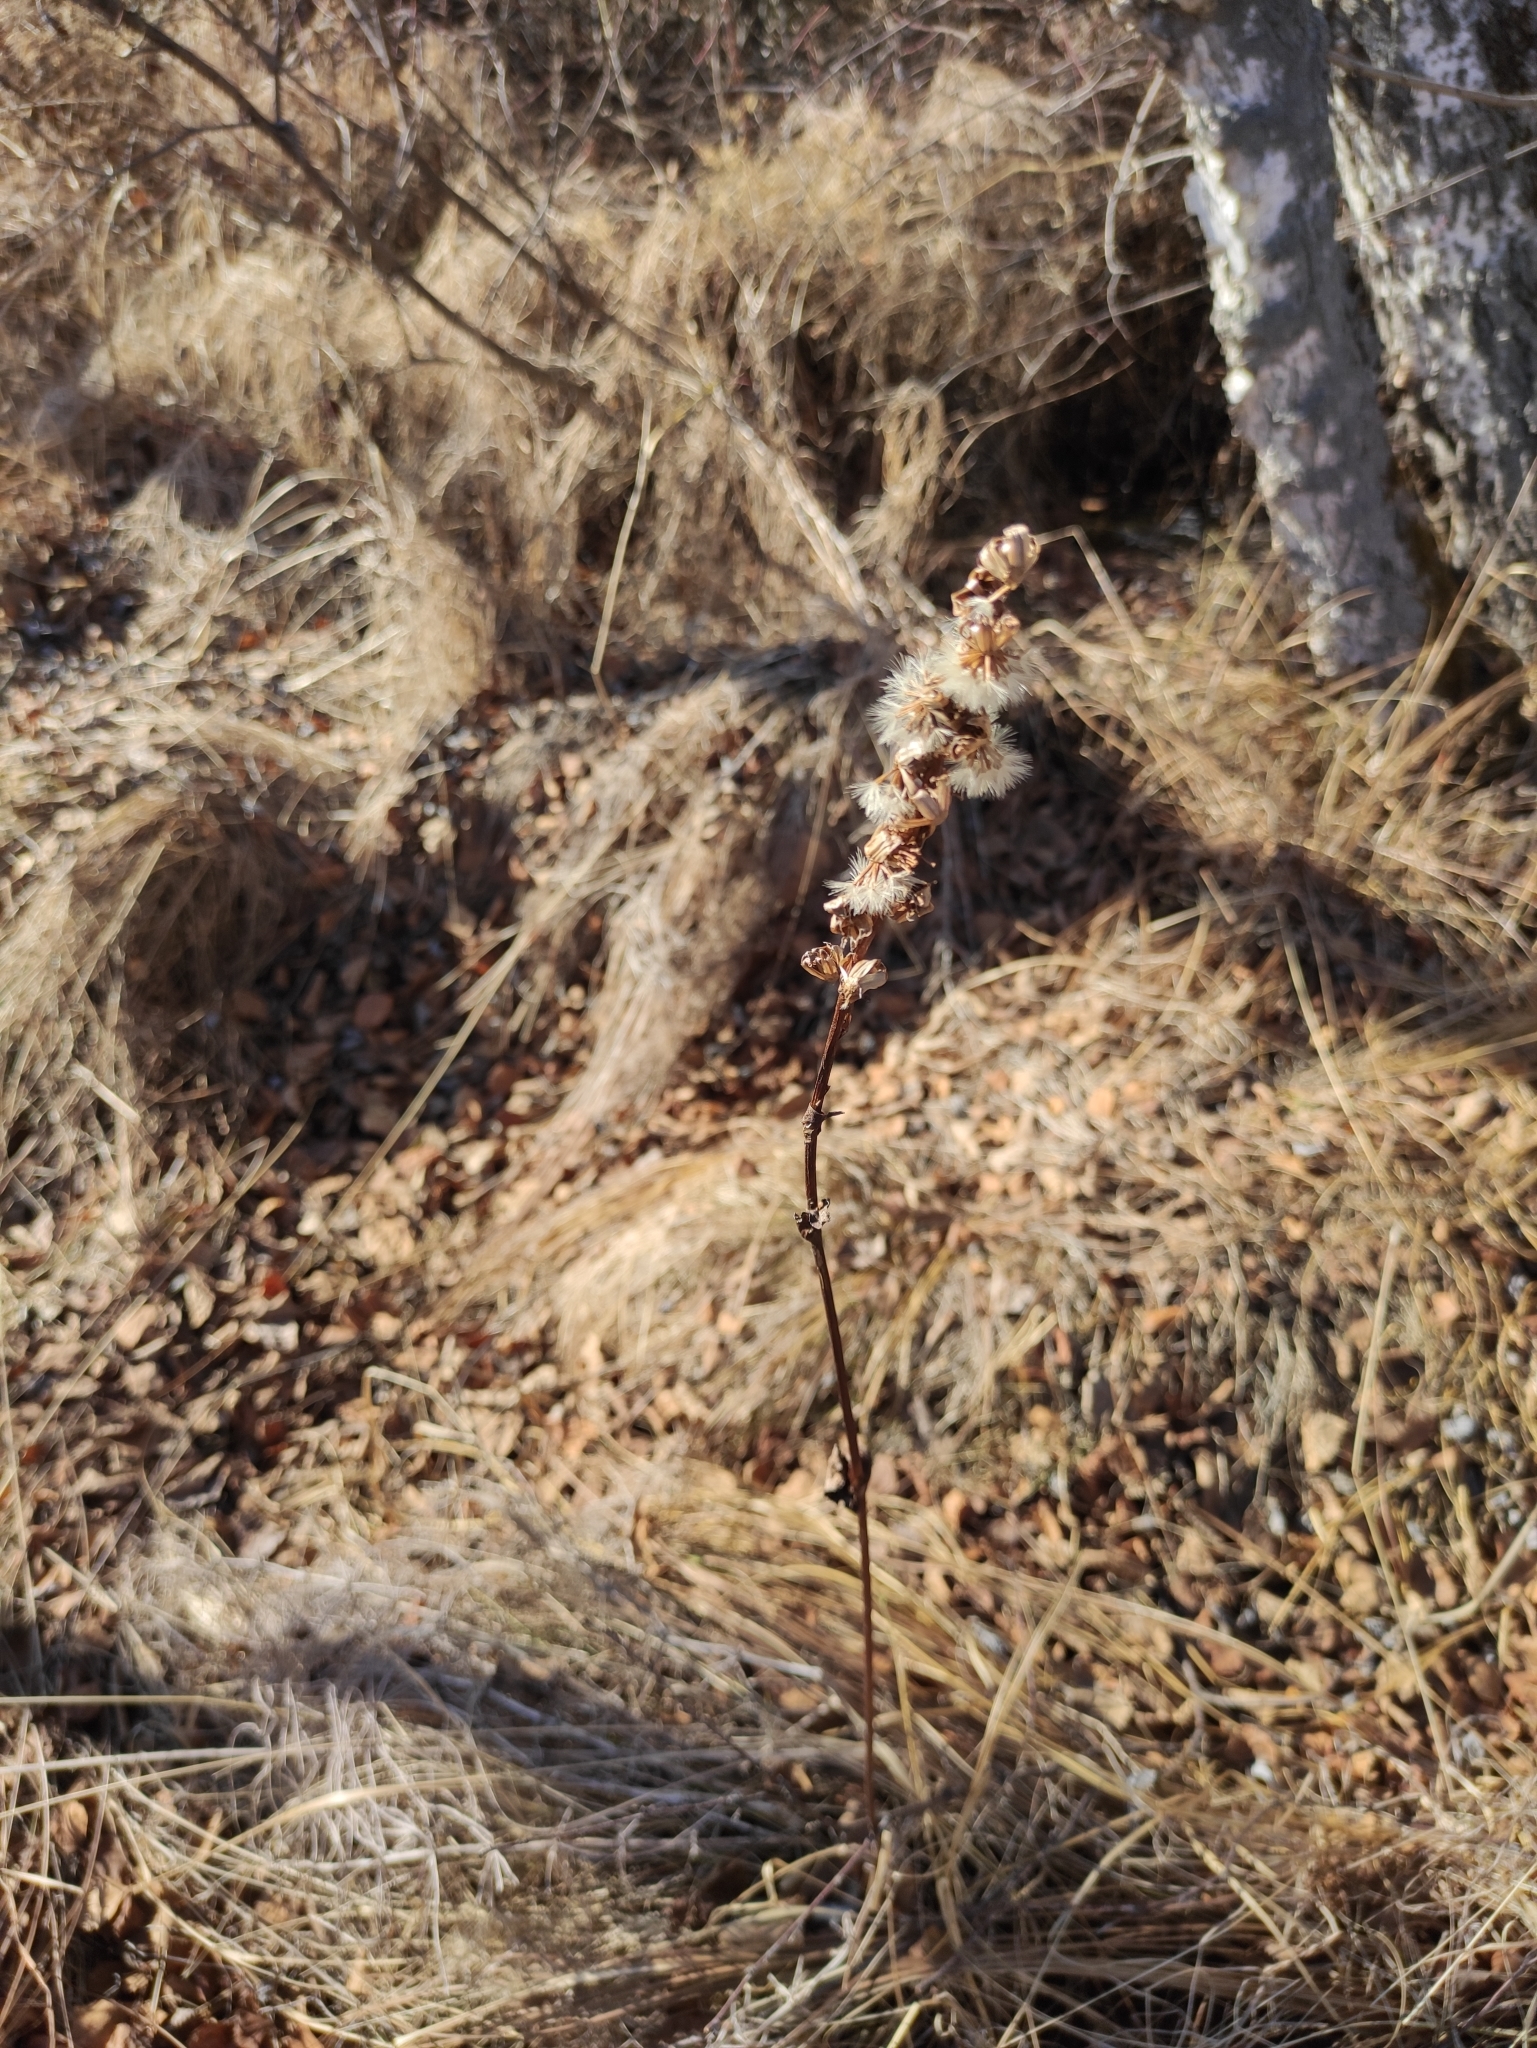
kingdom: Plantae
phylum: Tracheophyta
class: Magnoliopsida
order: Asterales
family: Asteraceae
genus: Ligularia
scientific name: Ligularia sibirica
